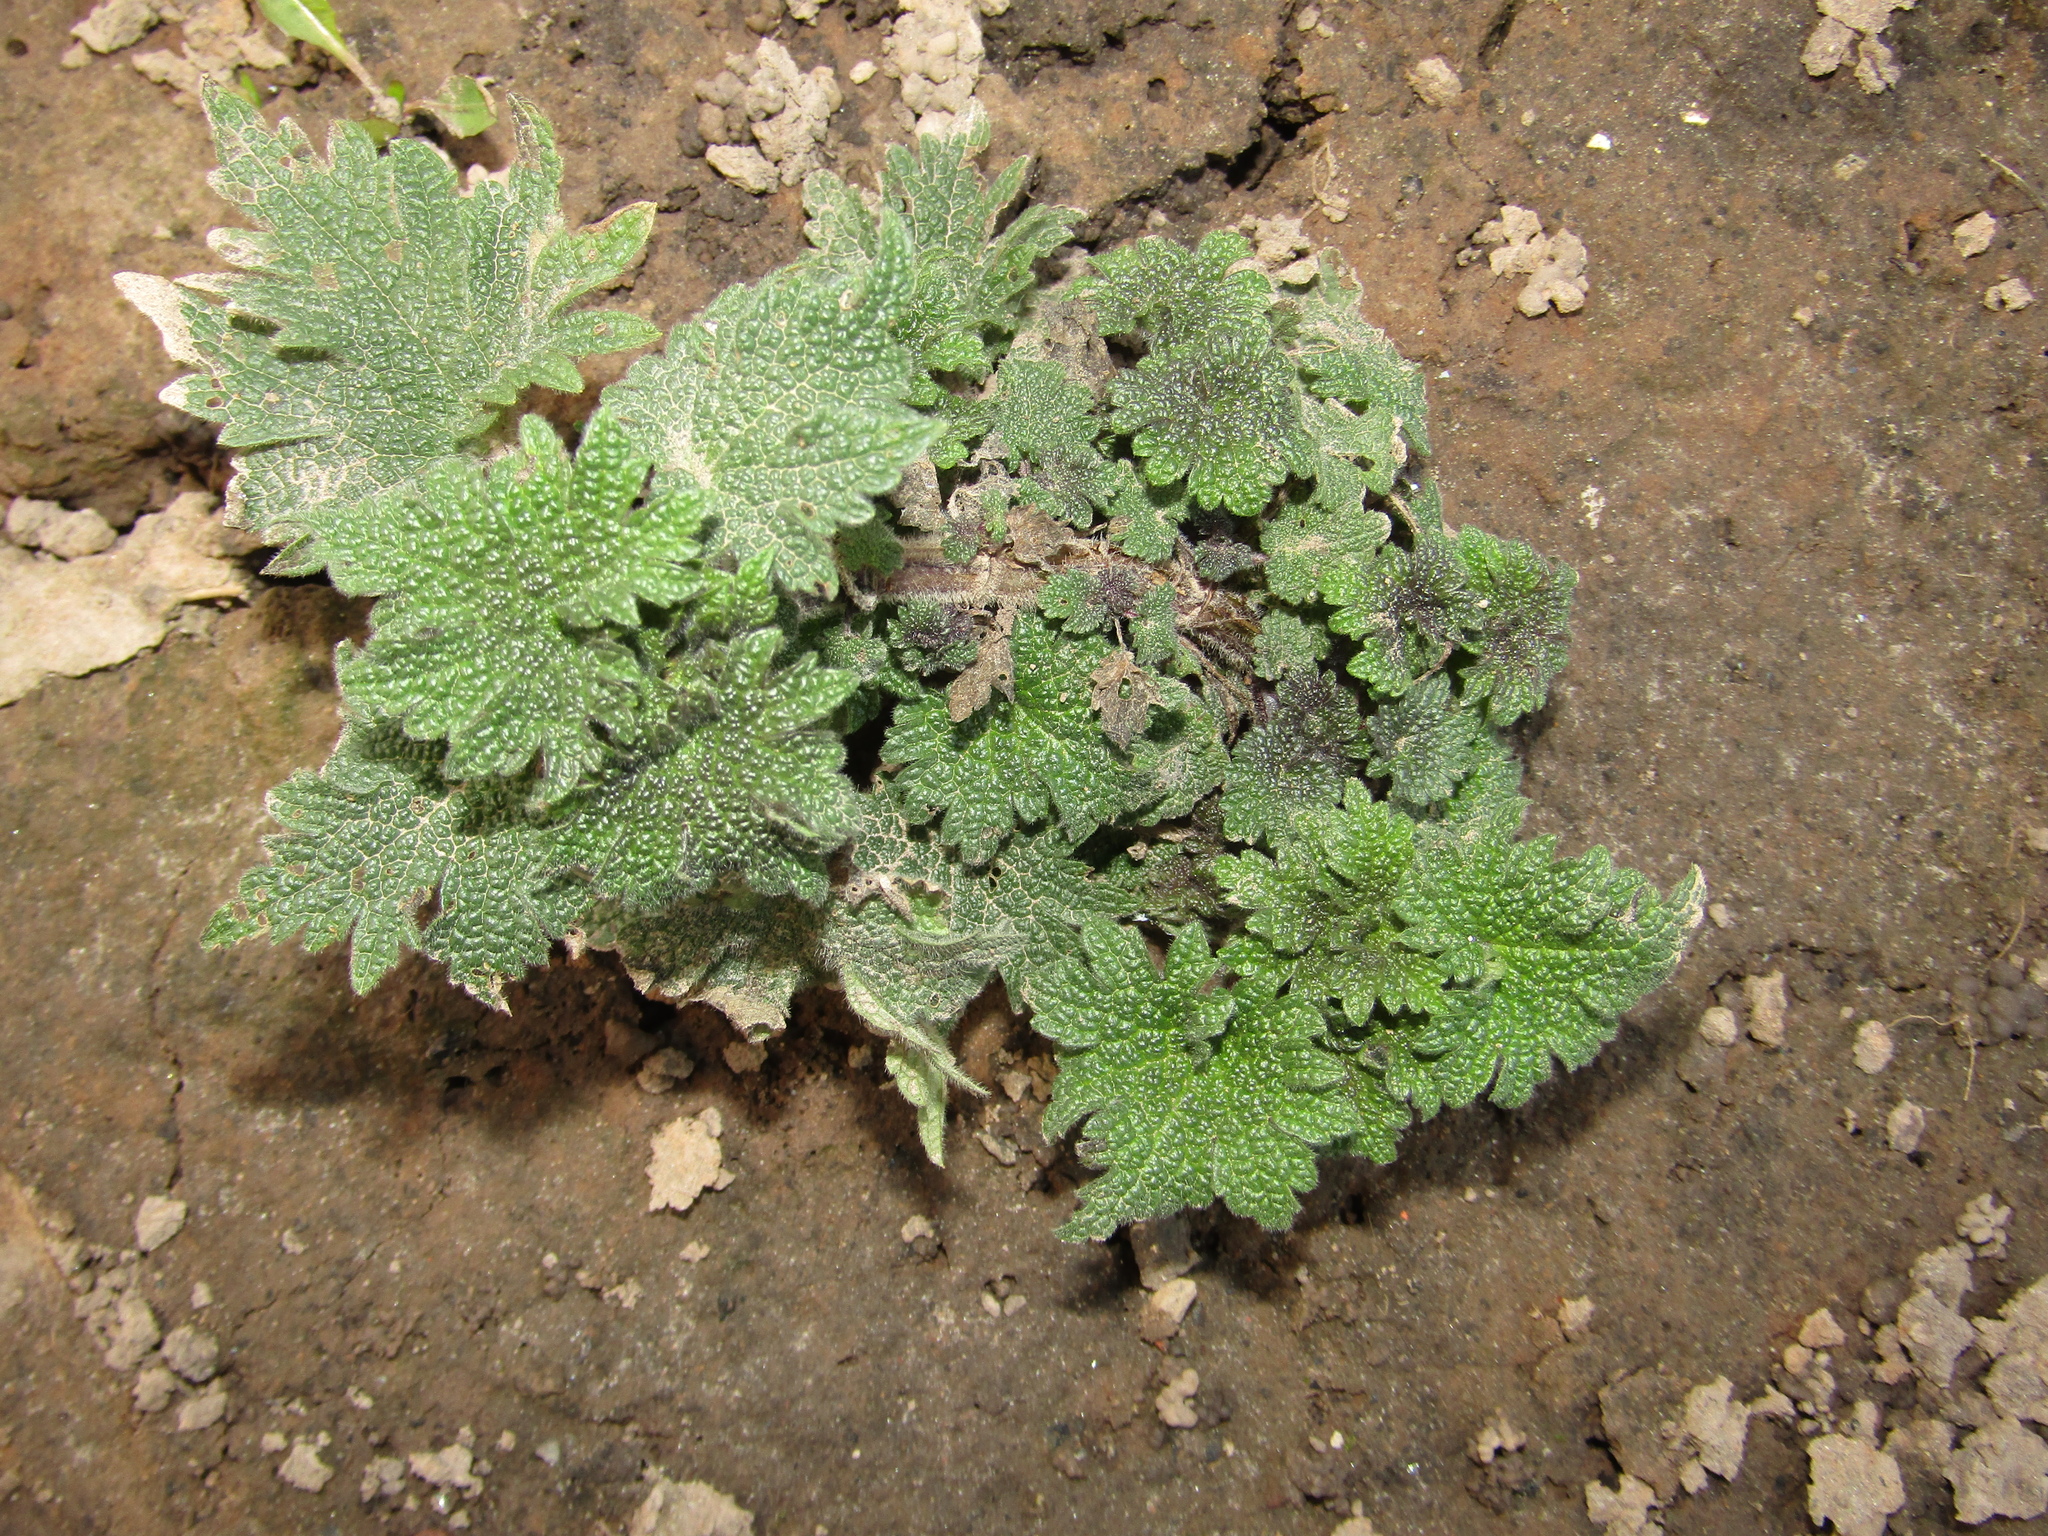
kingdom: Plantae
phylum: Tracheophyta
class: Magnoliopsida
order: Lamiales
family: Lamiaceae
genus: Leonurus
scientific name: Leonurus quinquelobatus
